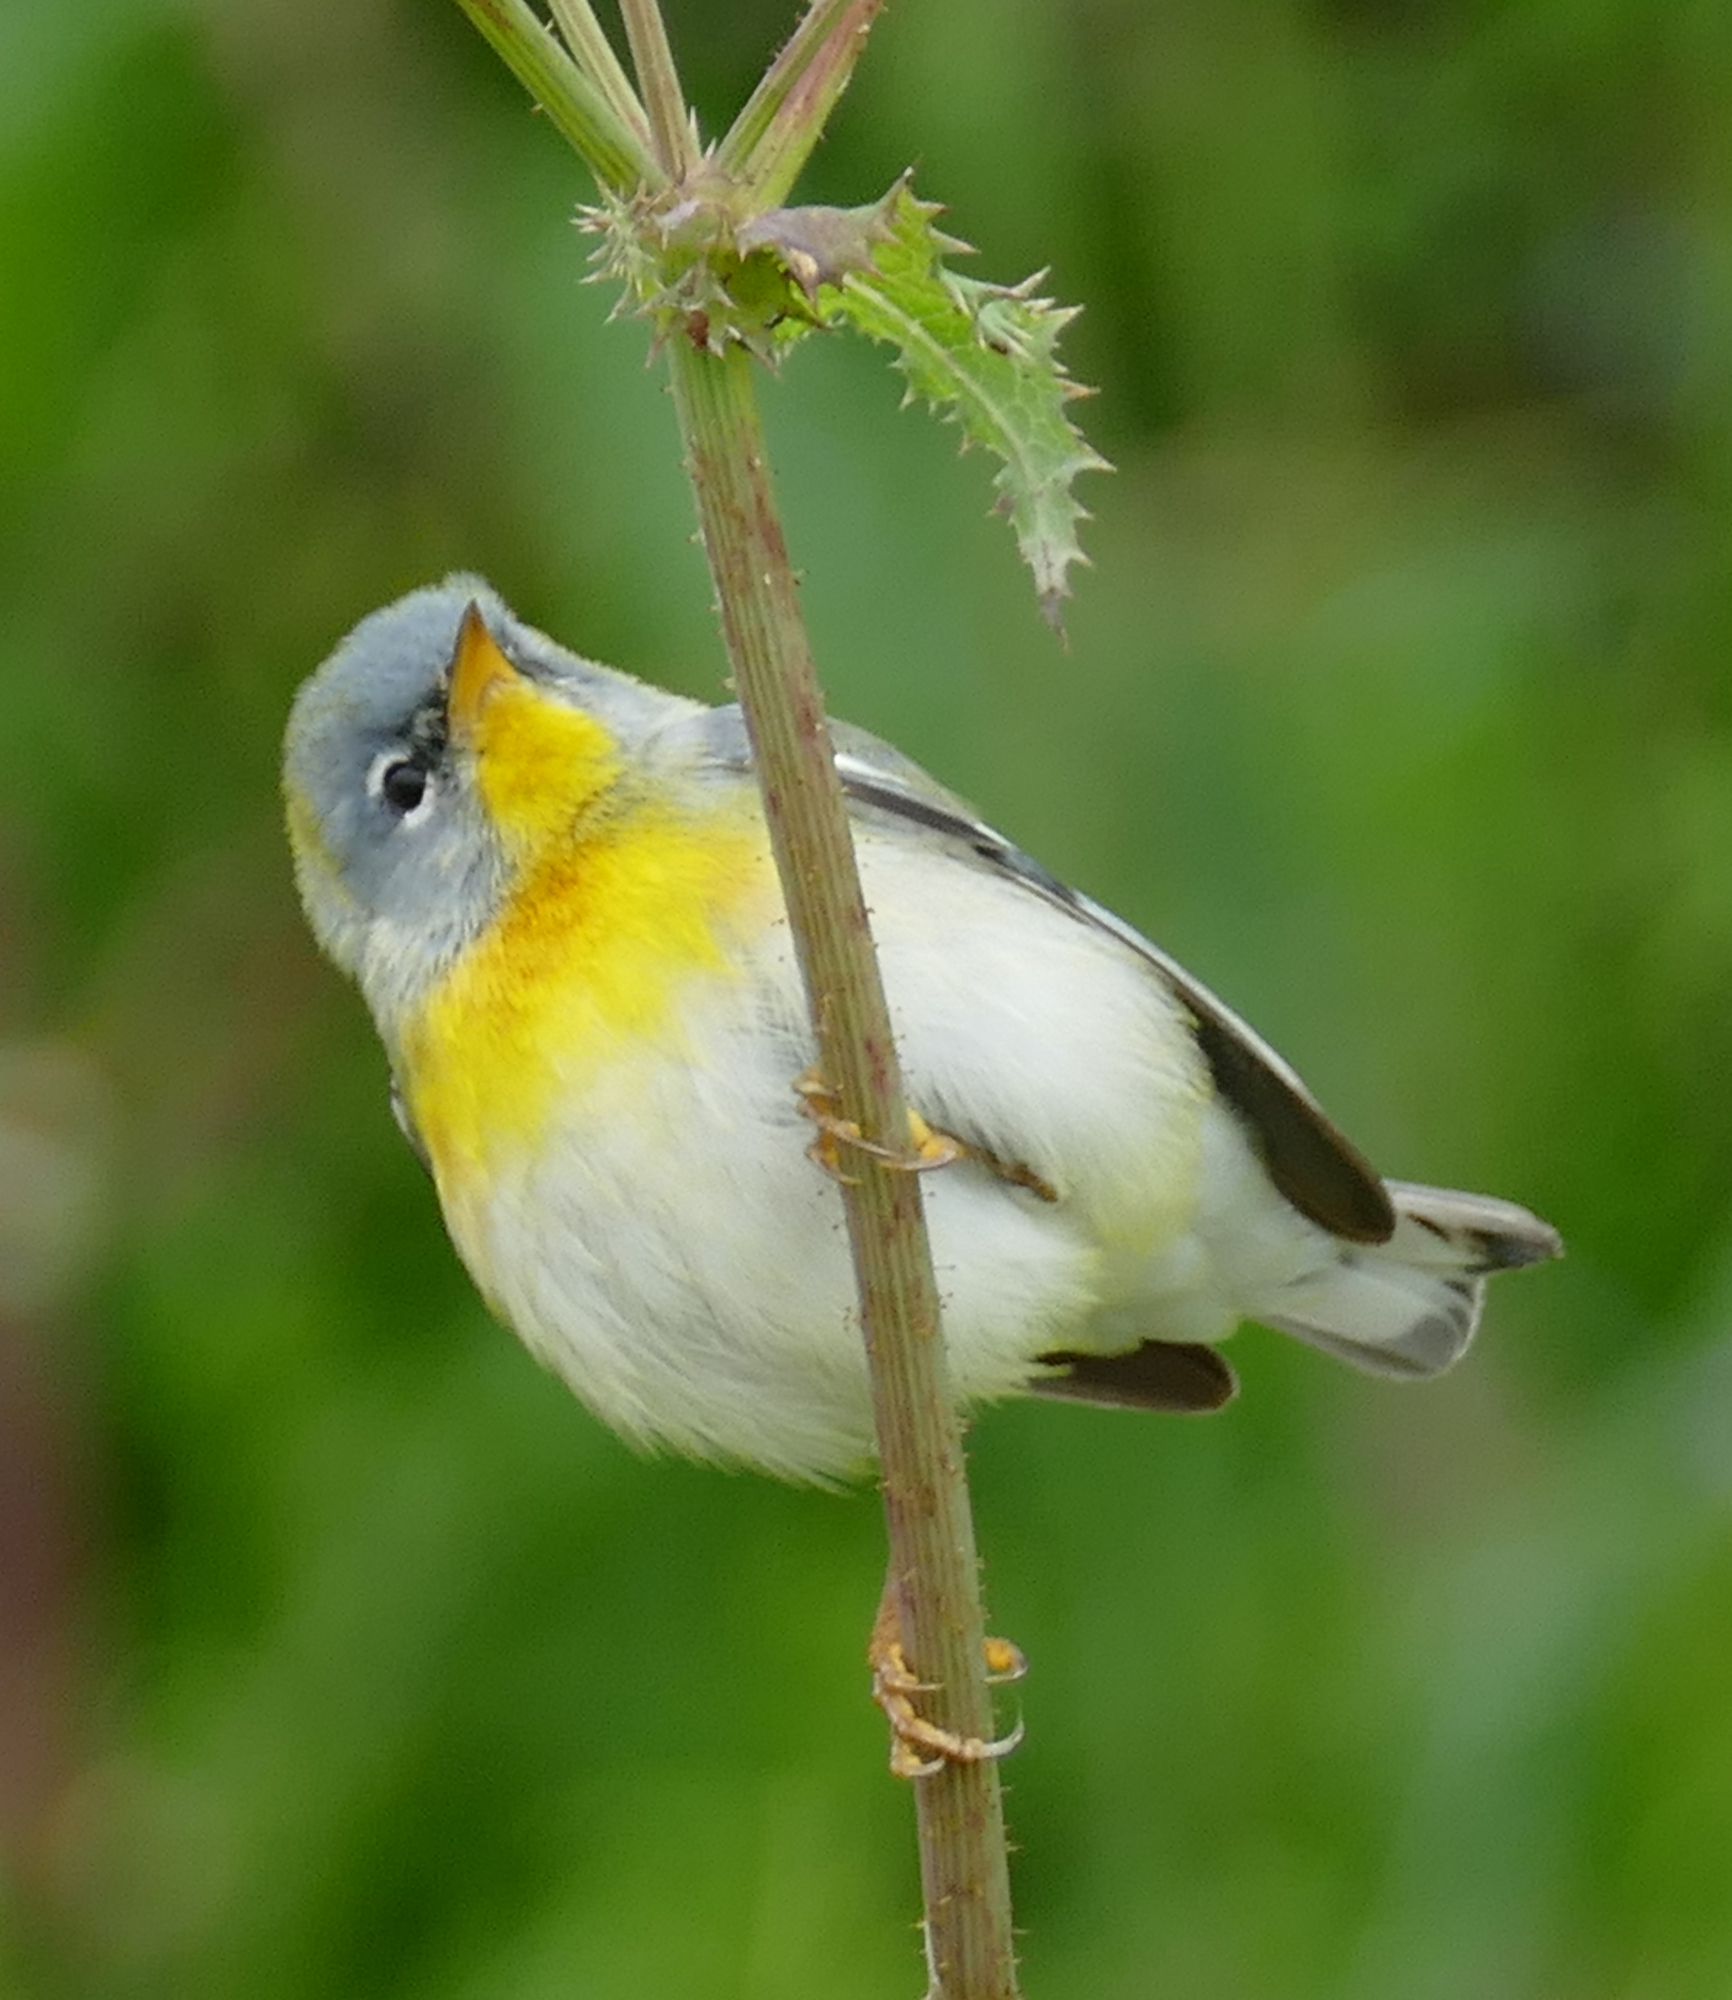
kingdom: Animalia
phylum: Chordata
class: Aves
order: Passeriformes
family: Parulidae
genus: Setophaga
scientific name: Setophaga americana
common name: Northern parula
